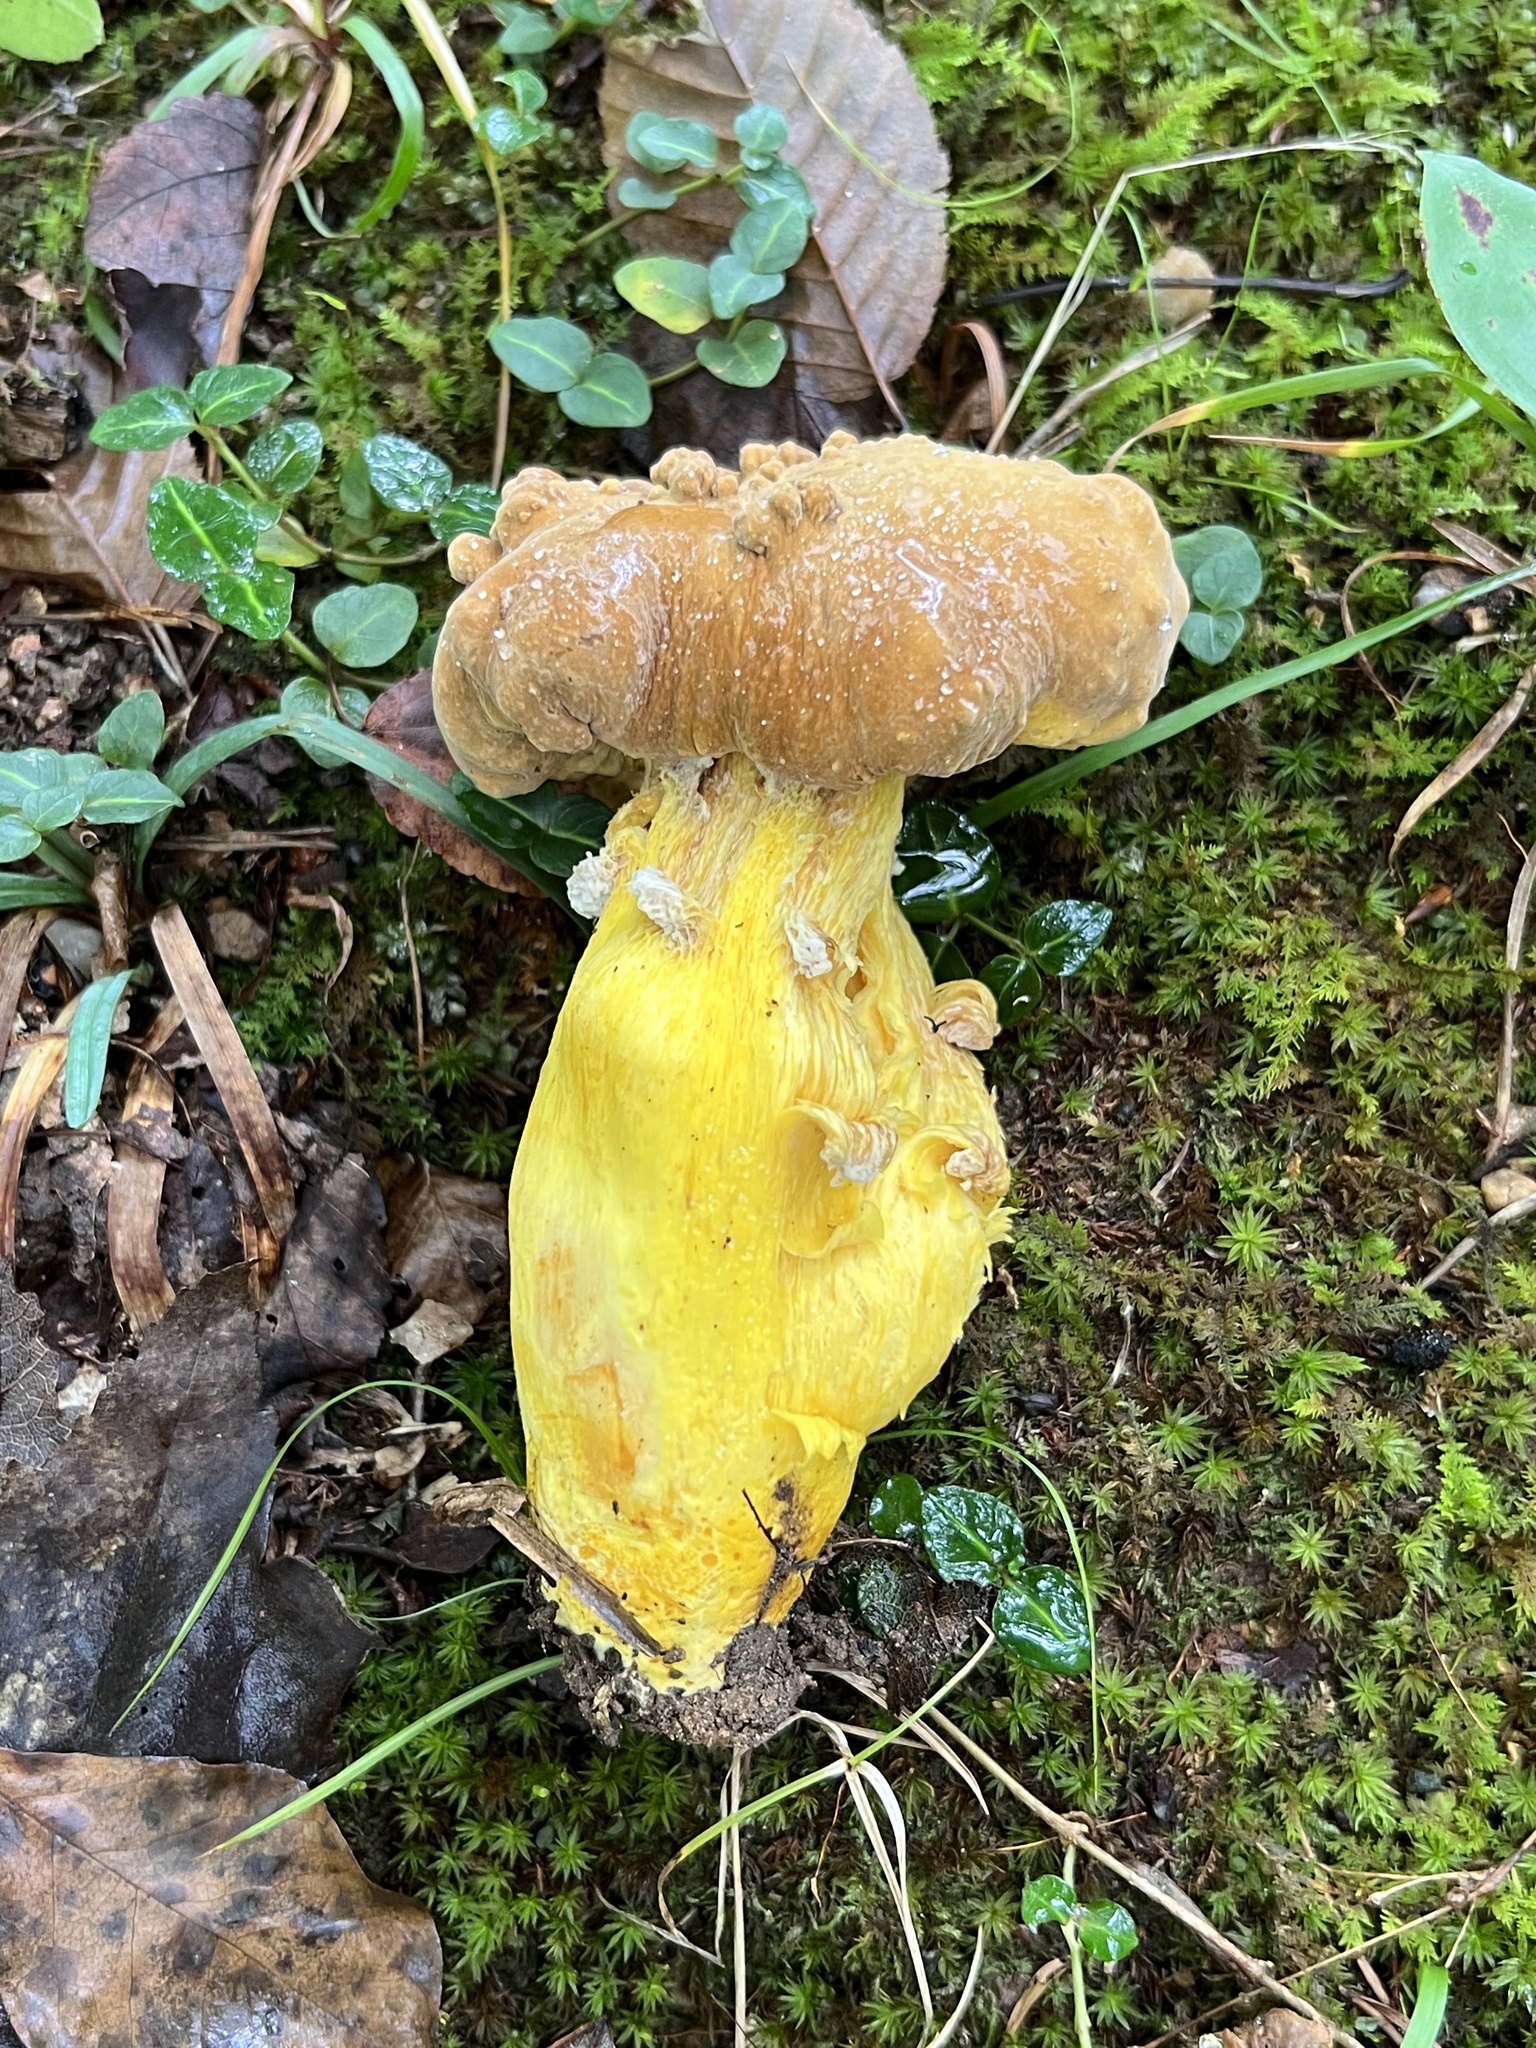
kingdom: Fungi
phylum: Basidiomycota
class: Agaricomycetes
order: Boletales
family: Boletaceae
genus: Boletus
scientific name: Boletus auripes
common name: Butter-foot bolete
